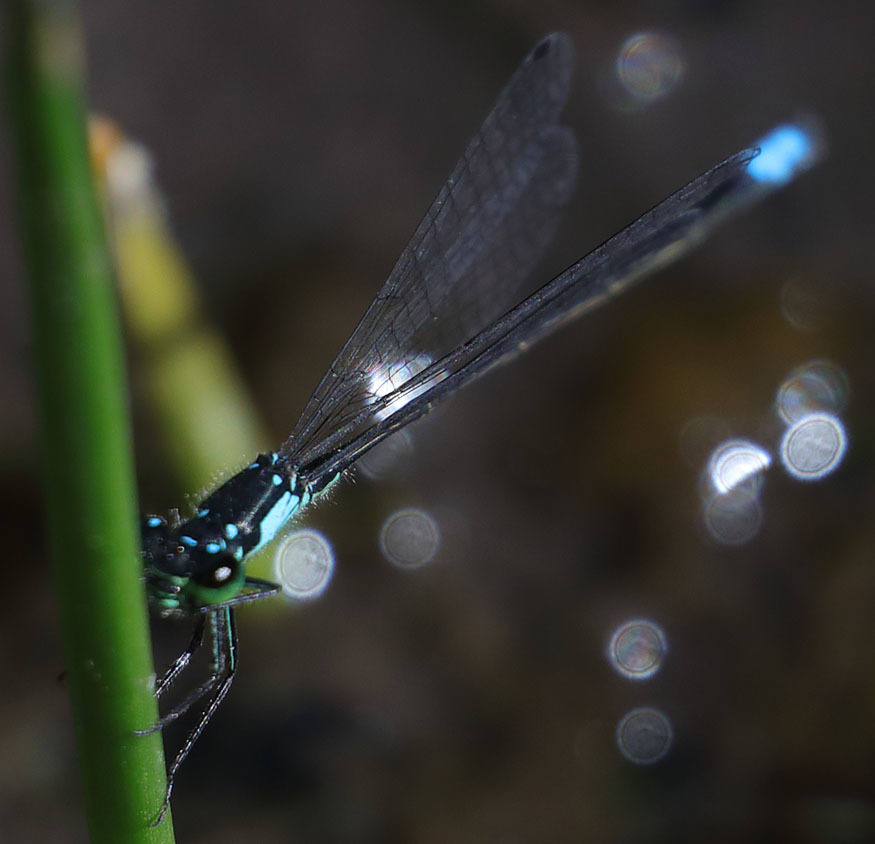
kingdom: Animalia
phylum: Arthropoda
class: Insecta
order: Odonata
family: Coenagrionidae
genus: Ischnura
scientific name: Ischnura cervula
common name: Pacific forktail
